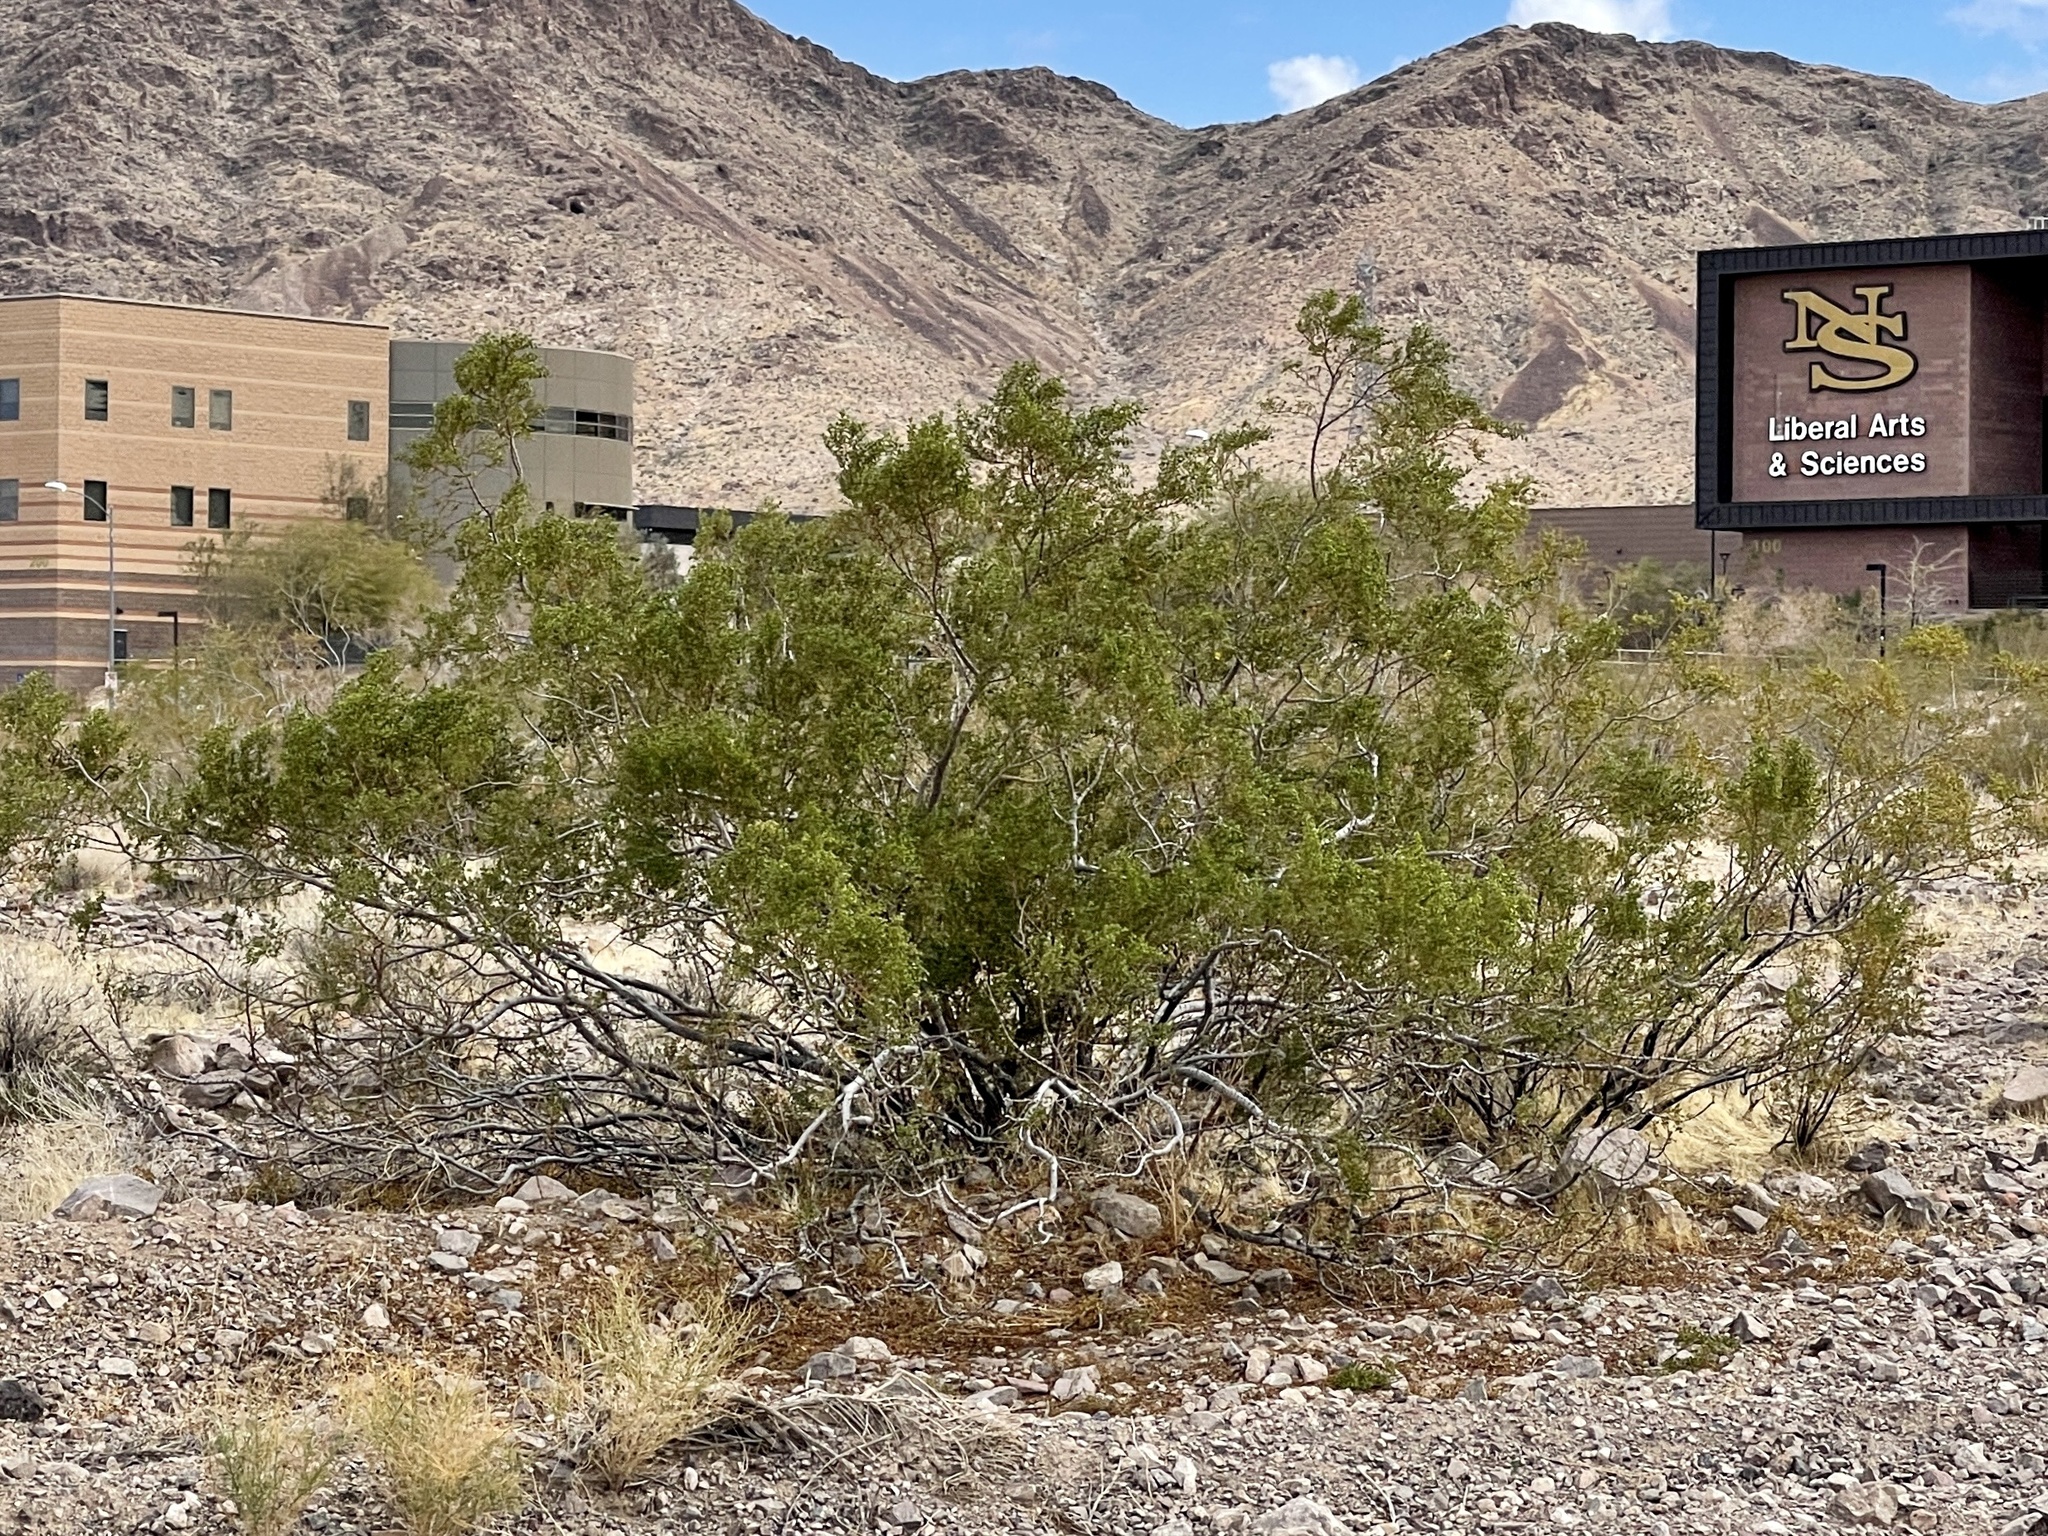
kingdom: Plantae
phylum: Tracheophyta
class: Magnoliopsida
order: Zygophyllales
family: Zygophyllaceae
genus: Larrea
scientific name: Larrea tridentata
